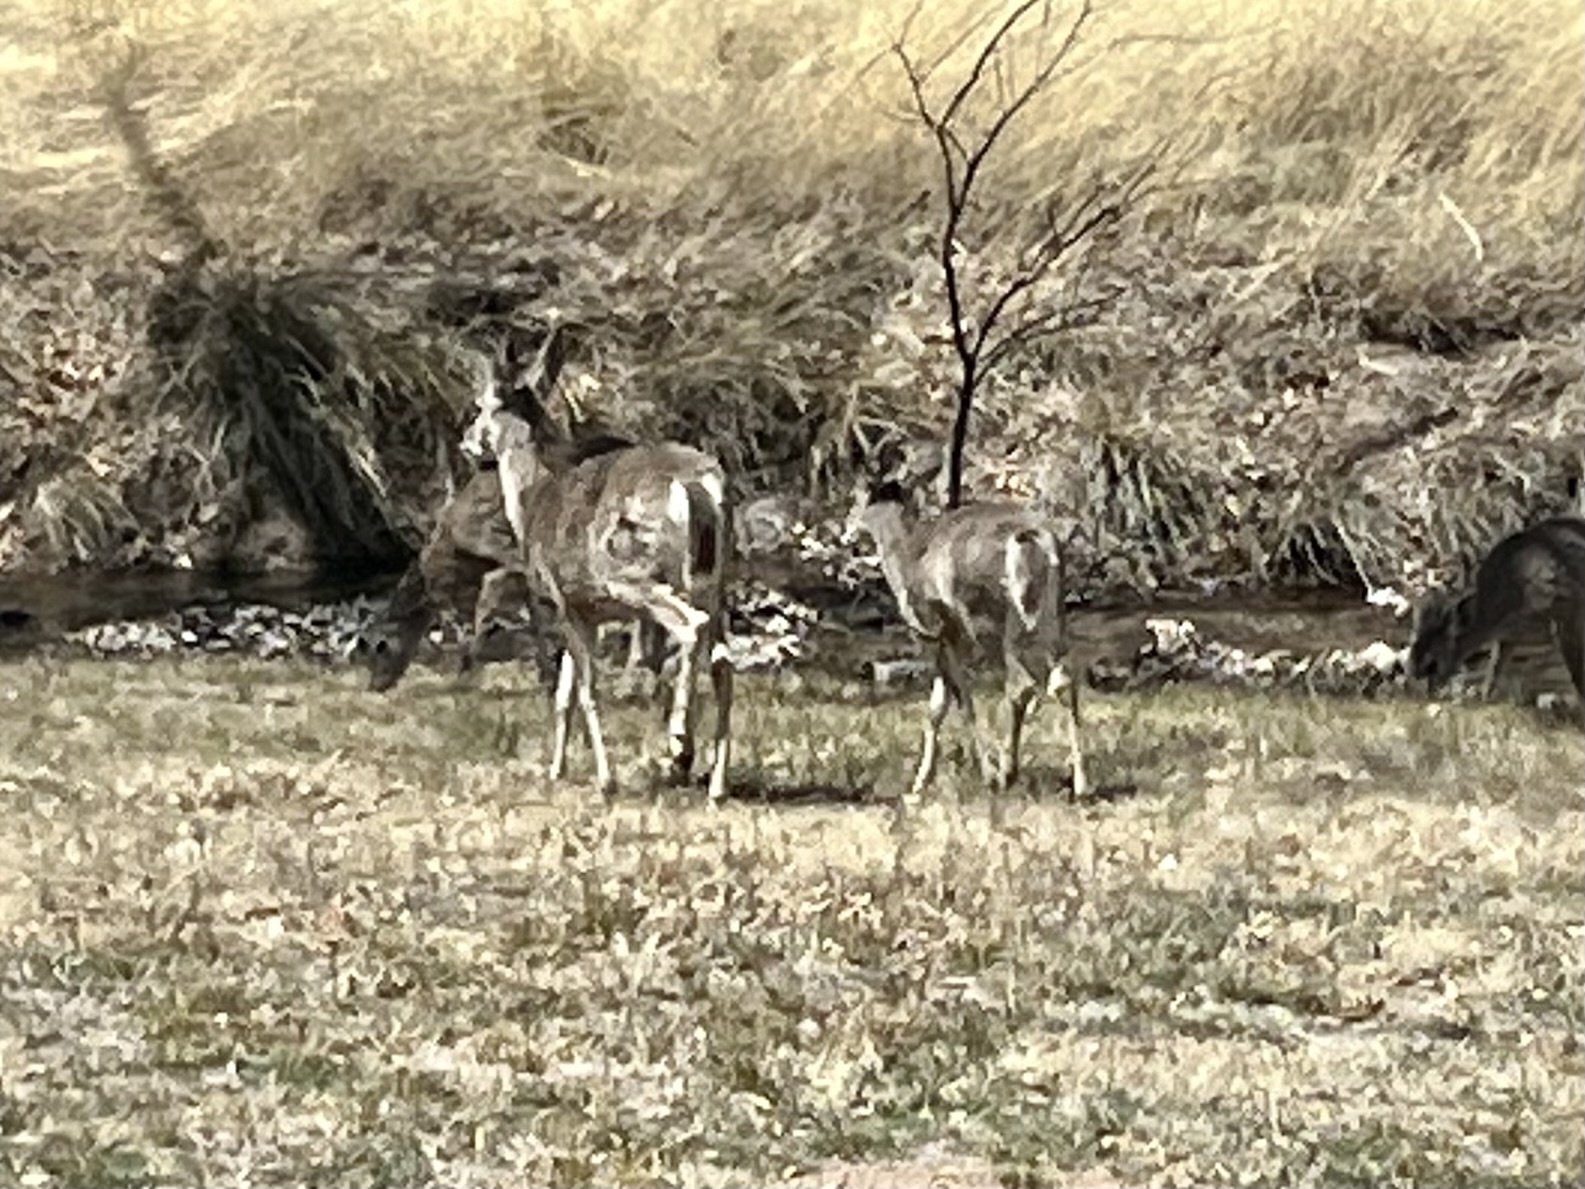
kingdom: Animalia
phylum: Chordata
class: Mammalia
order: Artiodactyla
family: Cervidae
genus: Odocoileus
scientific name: Odocoileus virginianus
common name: White-tailed deer
